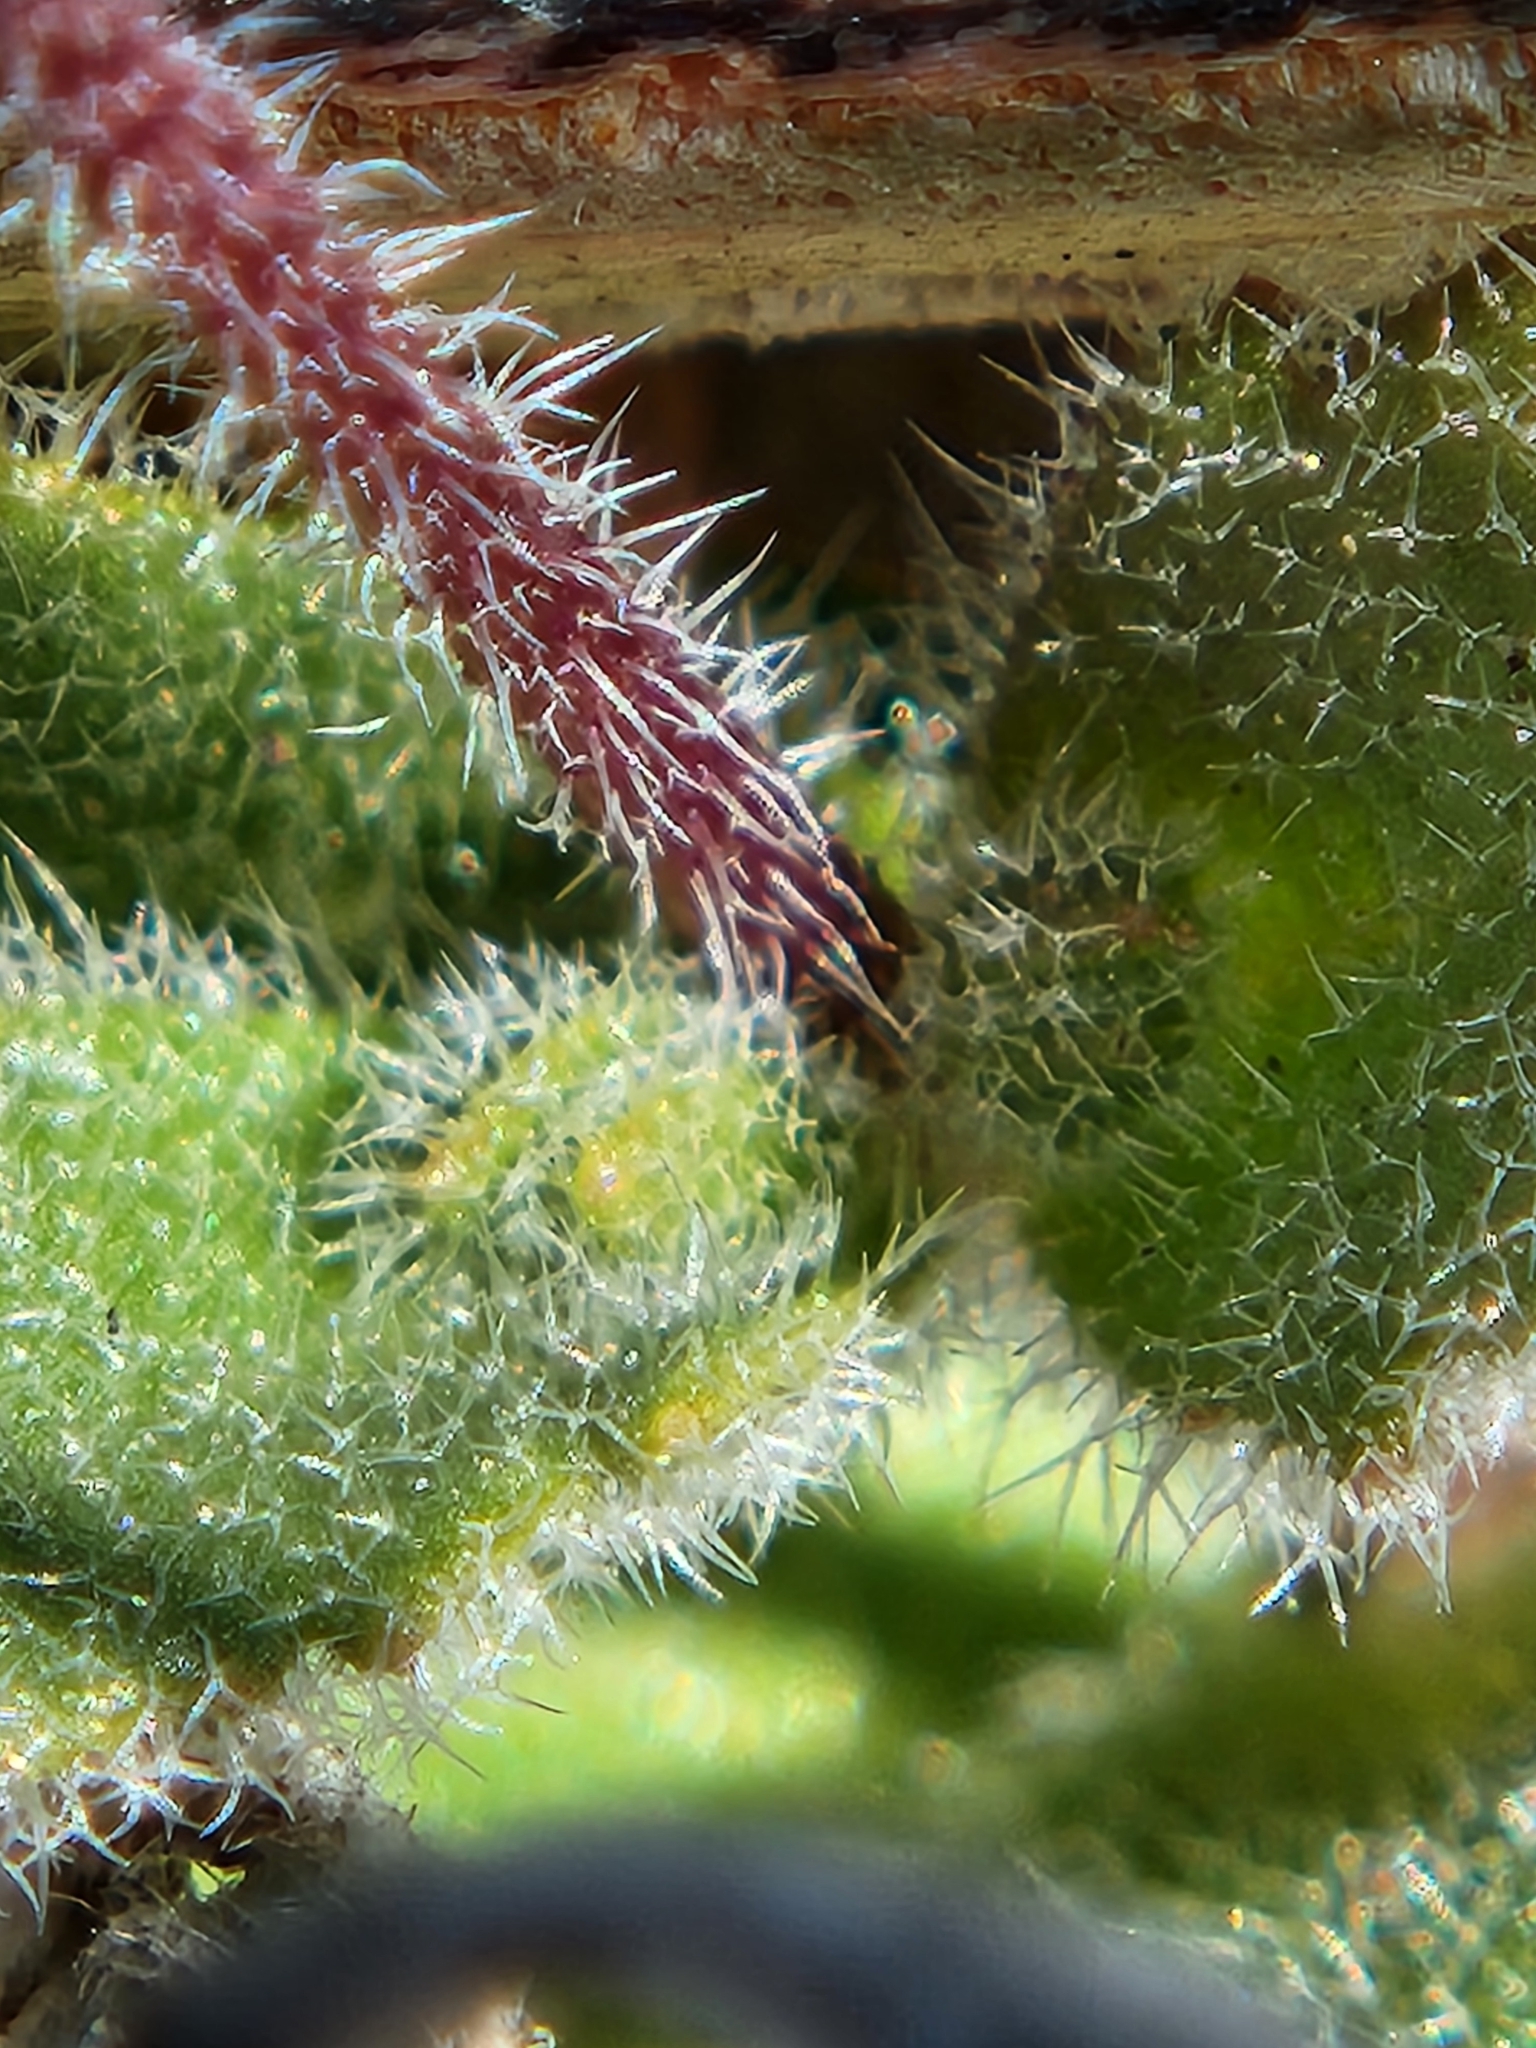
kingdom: Plantae
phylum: Tracheophyta
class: Magnoliopsida
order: Brassicales
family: Brassicaceae
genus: Tomostima
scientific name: Tomostima cuneifolia
